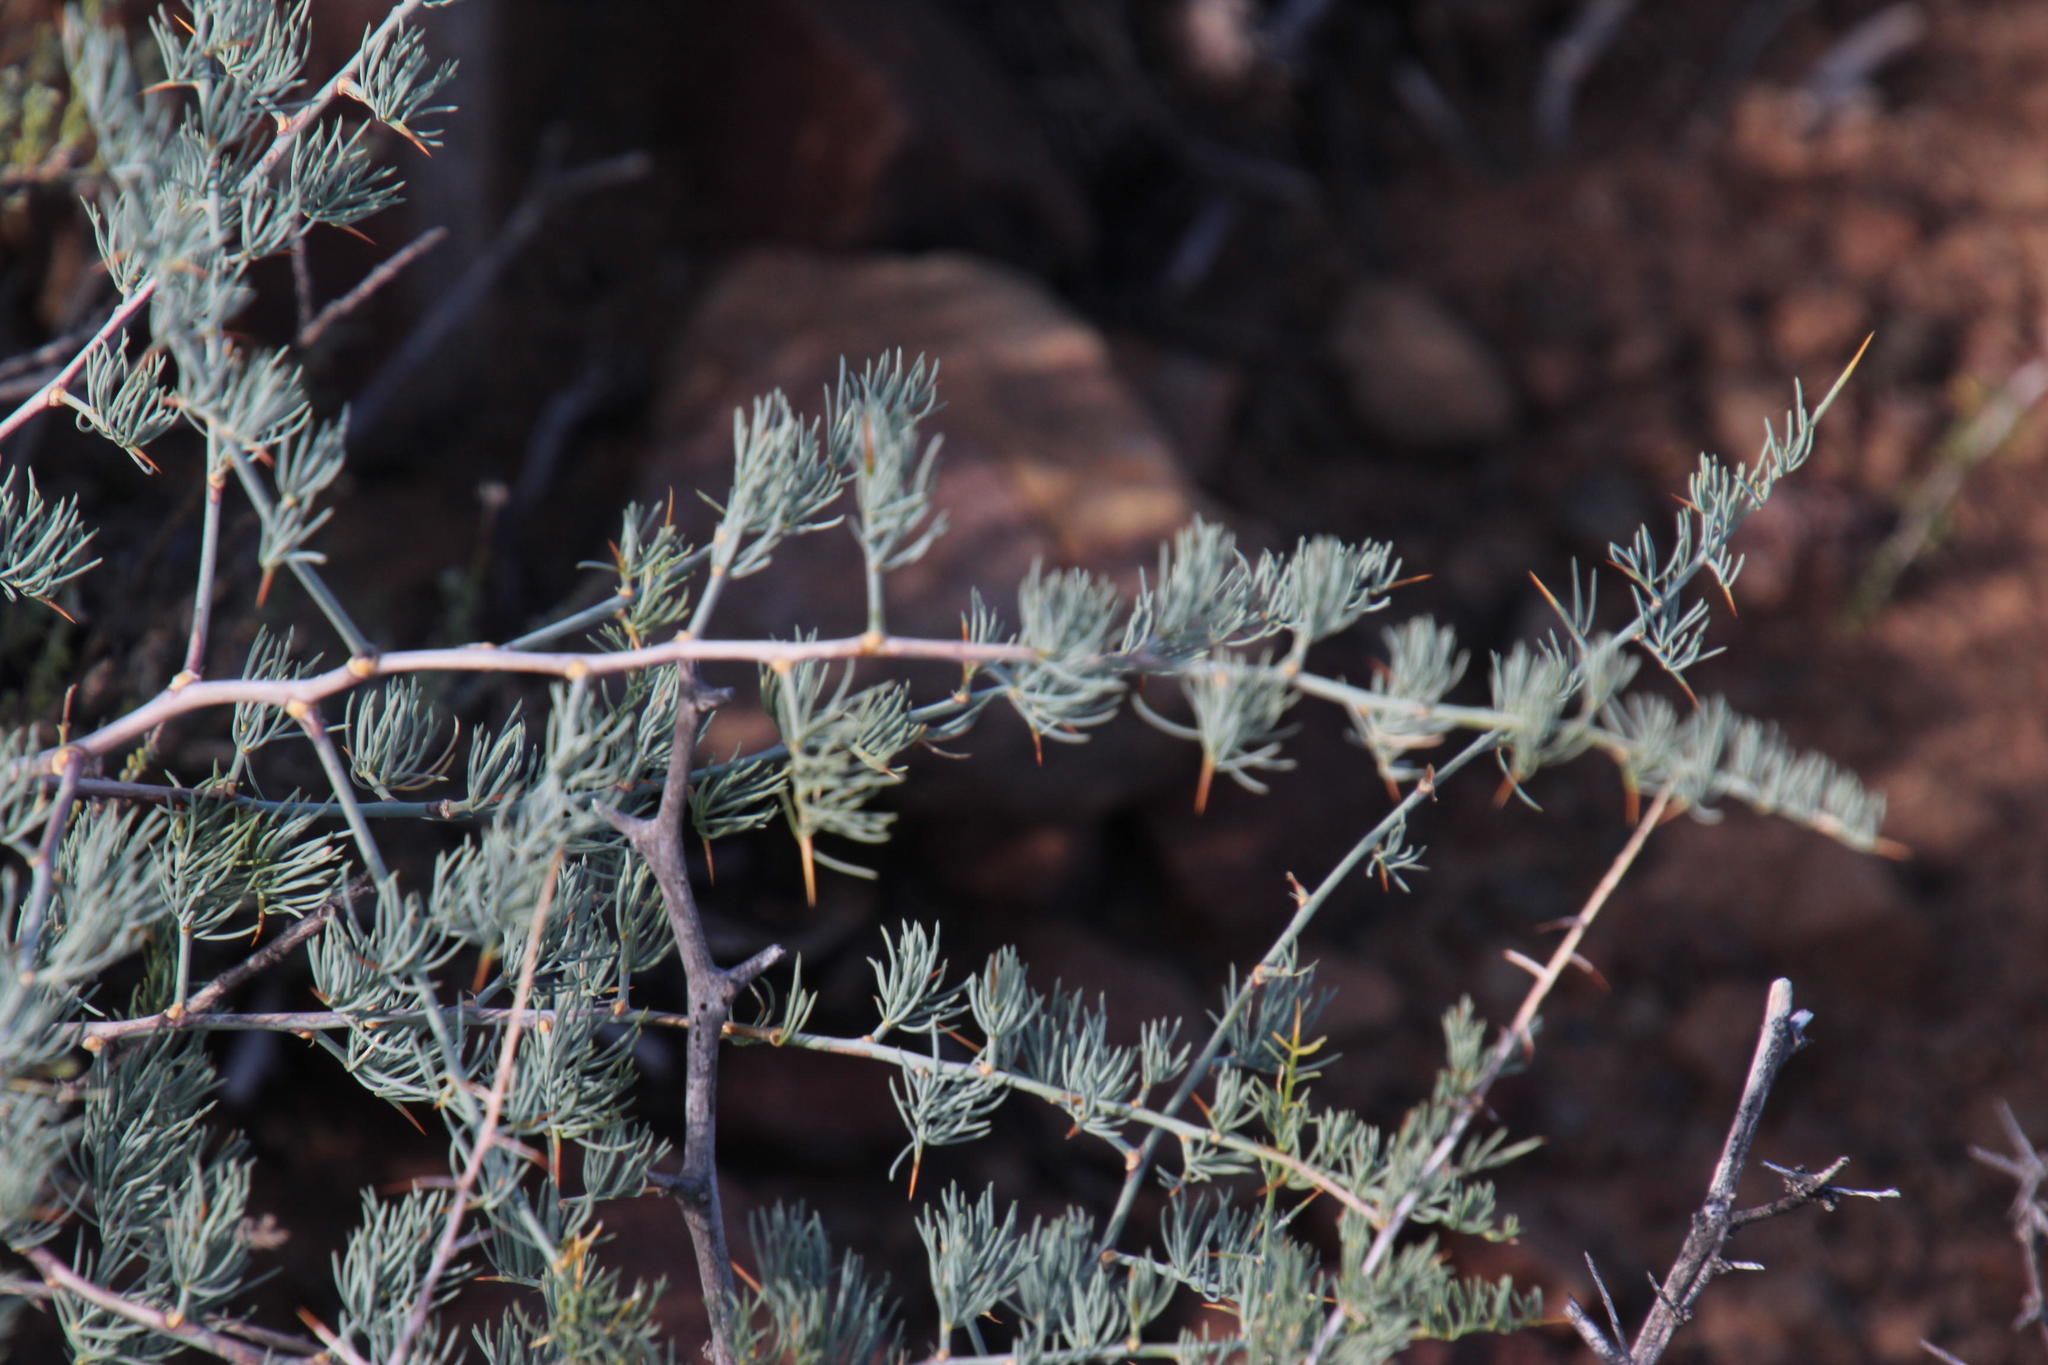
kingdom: Plantae
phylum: Tracheophyta
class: Liliopsida
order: Asparagales
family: Asparagaceae
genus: Asparagus
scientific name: Asparagus glaucus
